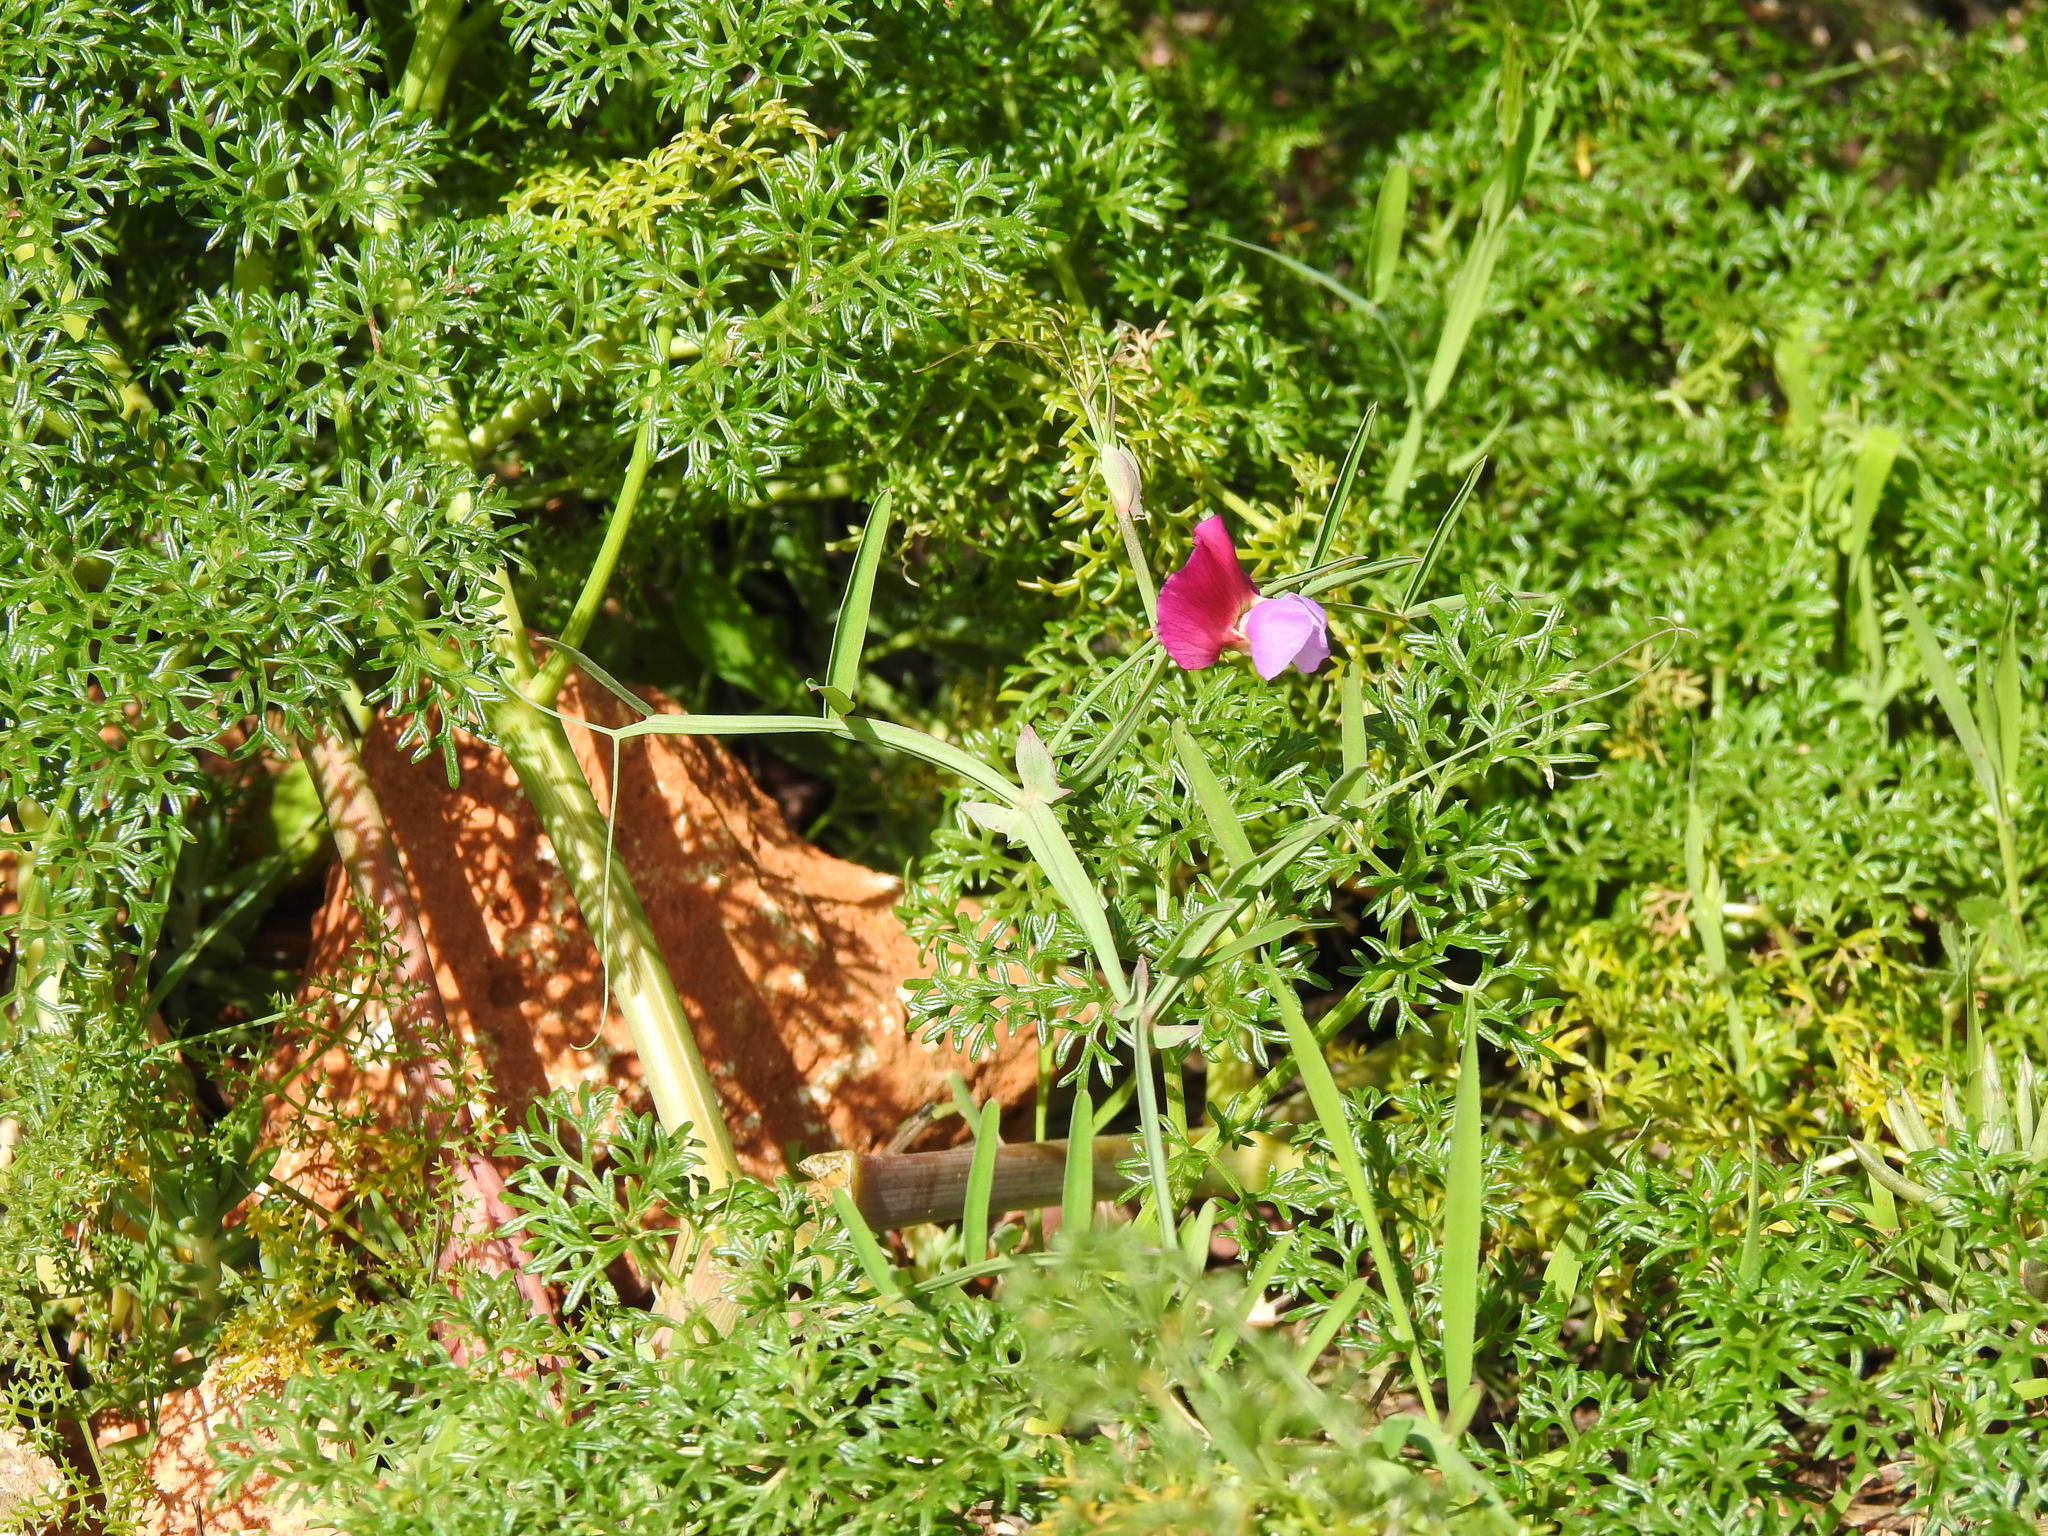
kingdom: Plantae
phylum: Tracheophyta
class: Magnoliopsida
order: Fabales
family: Fabaceae
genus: Lathyrus
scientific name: Lathyrus clymenum
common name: Spanish vetchling
